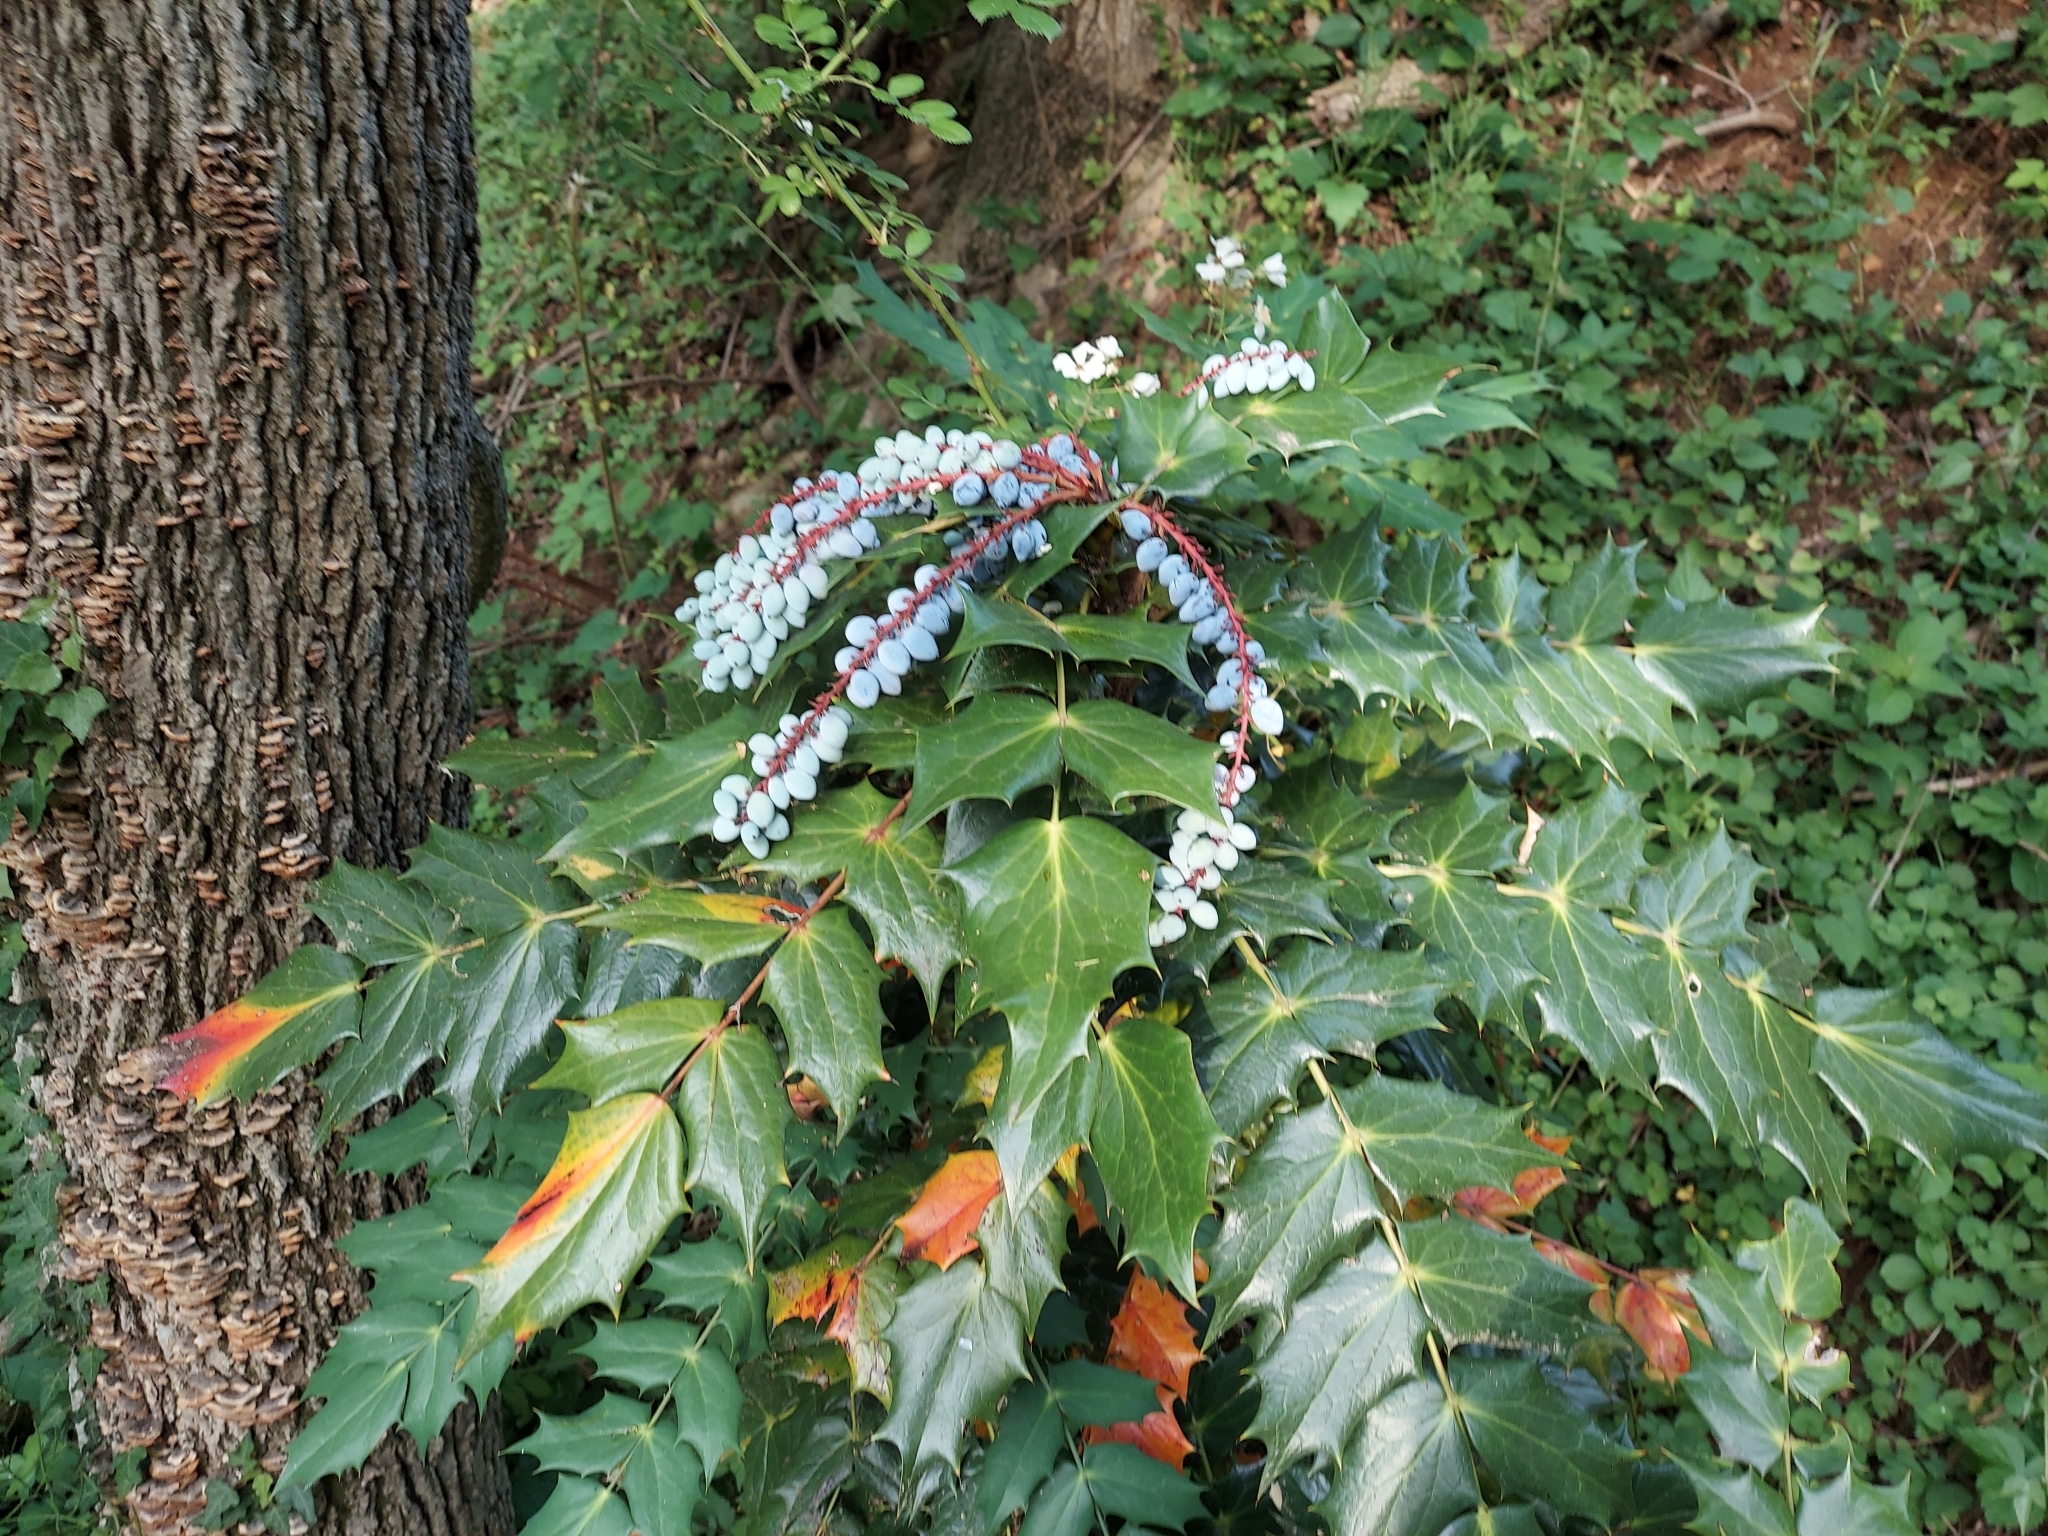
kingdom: Plantae
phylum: Tracheophyta
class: Magnoliopsida
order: Ranunculales
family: Berberidaceae
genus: Mahonia
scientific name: Mahonia bealei
